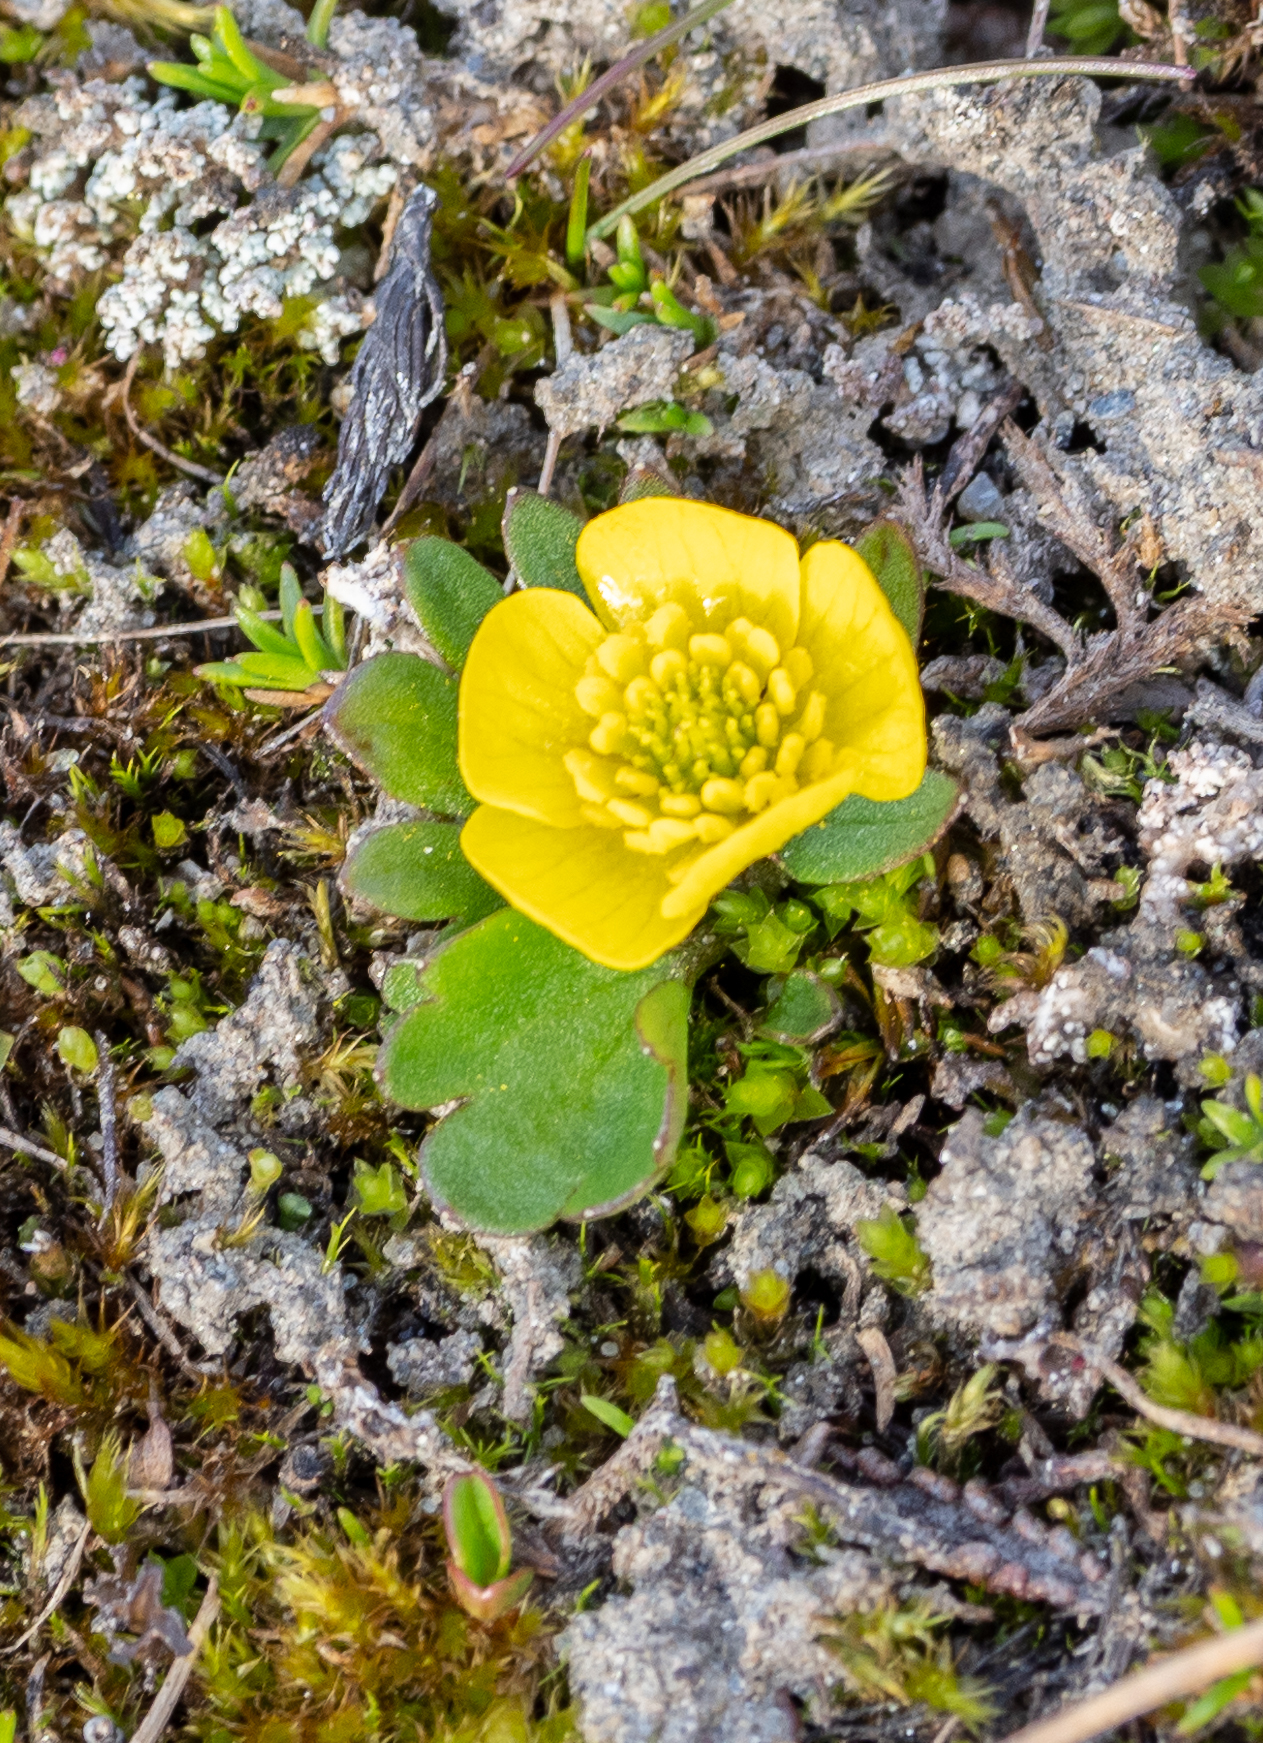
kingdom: Plantae
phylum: Tracheophyta
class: Magnoliopsida
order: Ranunculales
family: Ranunculaceae
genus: Ranunculus
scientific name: Ranunculus sulphureus
